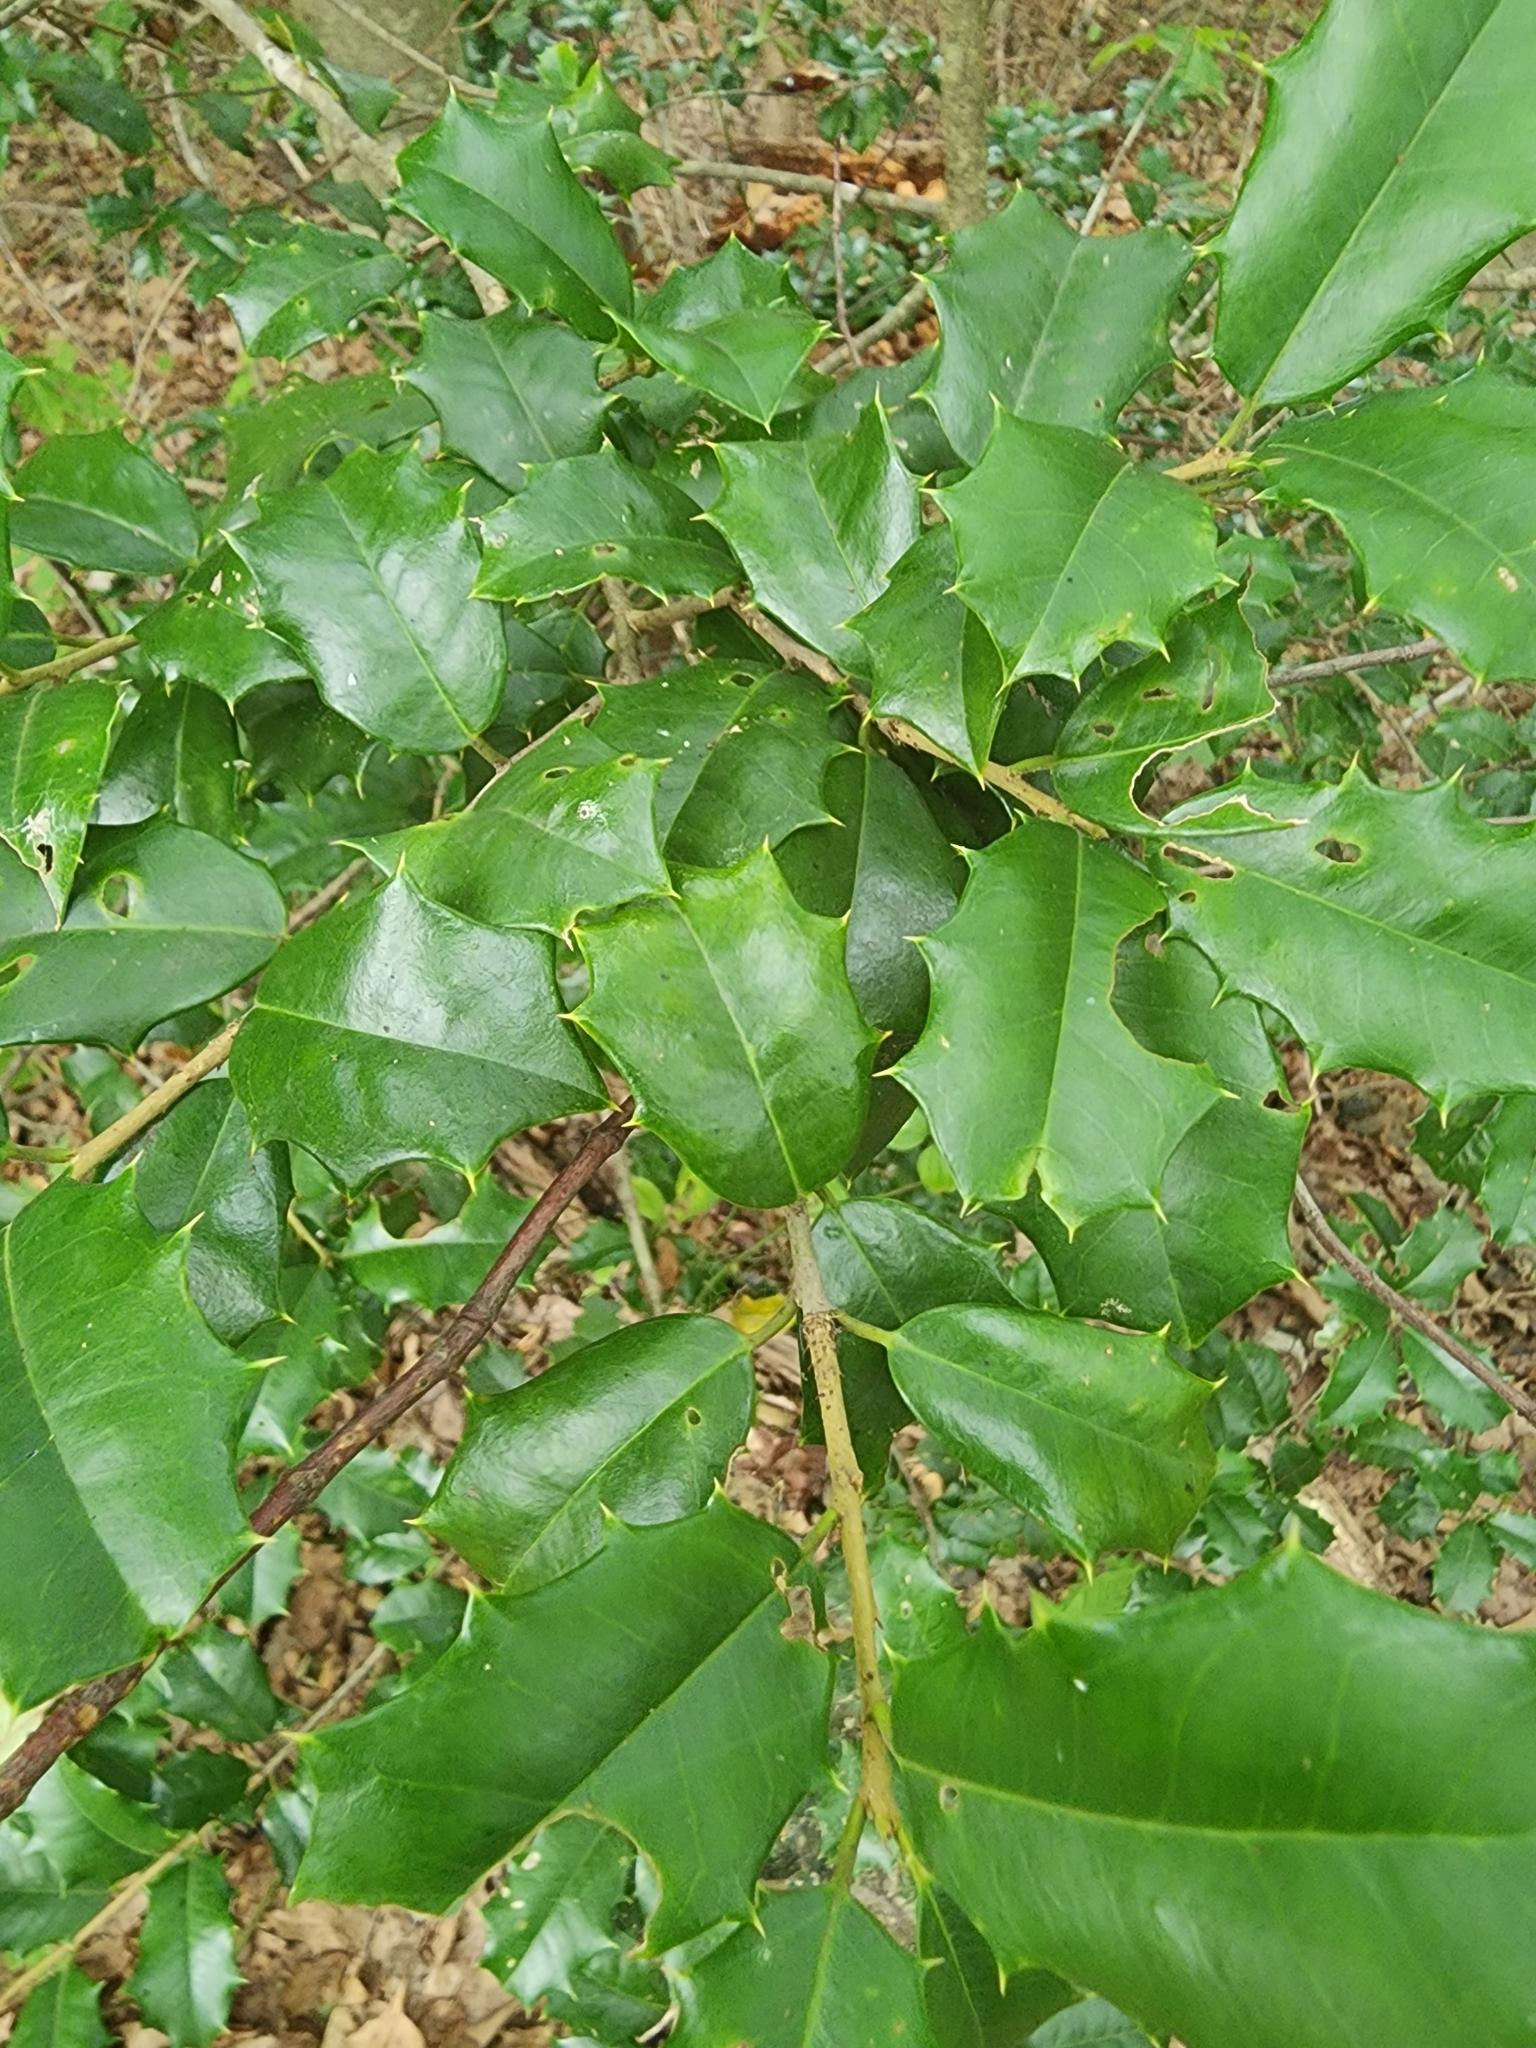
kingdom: Plantae
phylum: Tracheophyta
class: Magnoliopsida
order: Aquifoliales
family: Aquifoliaceae
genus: Ilex
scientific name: Ilex opaca
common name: American holly
